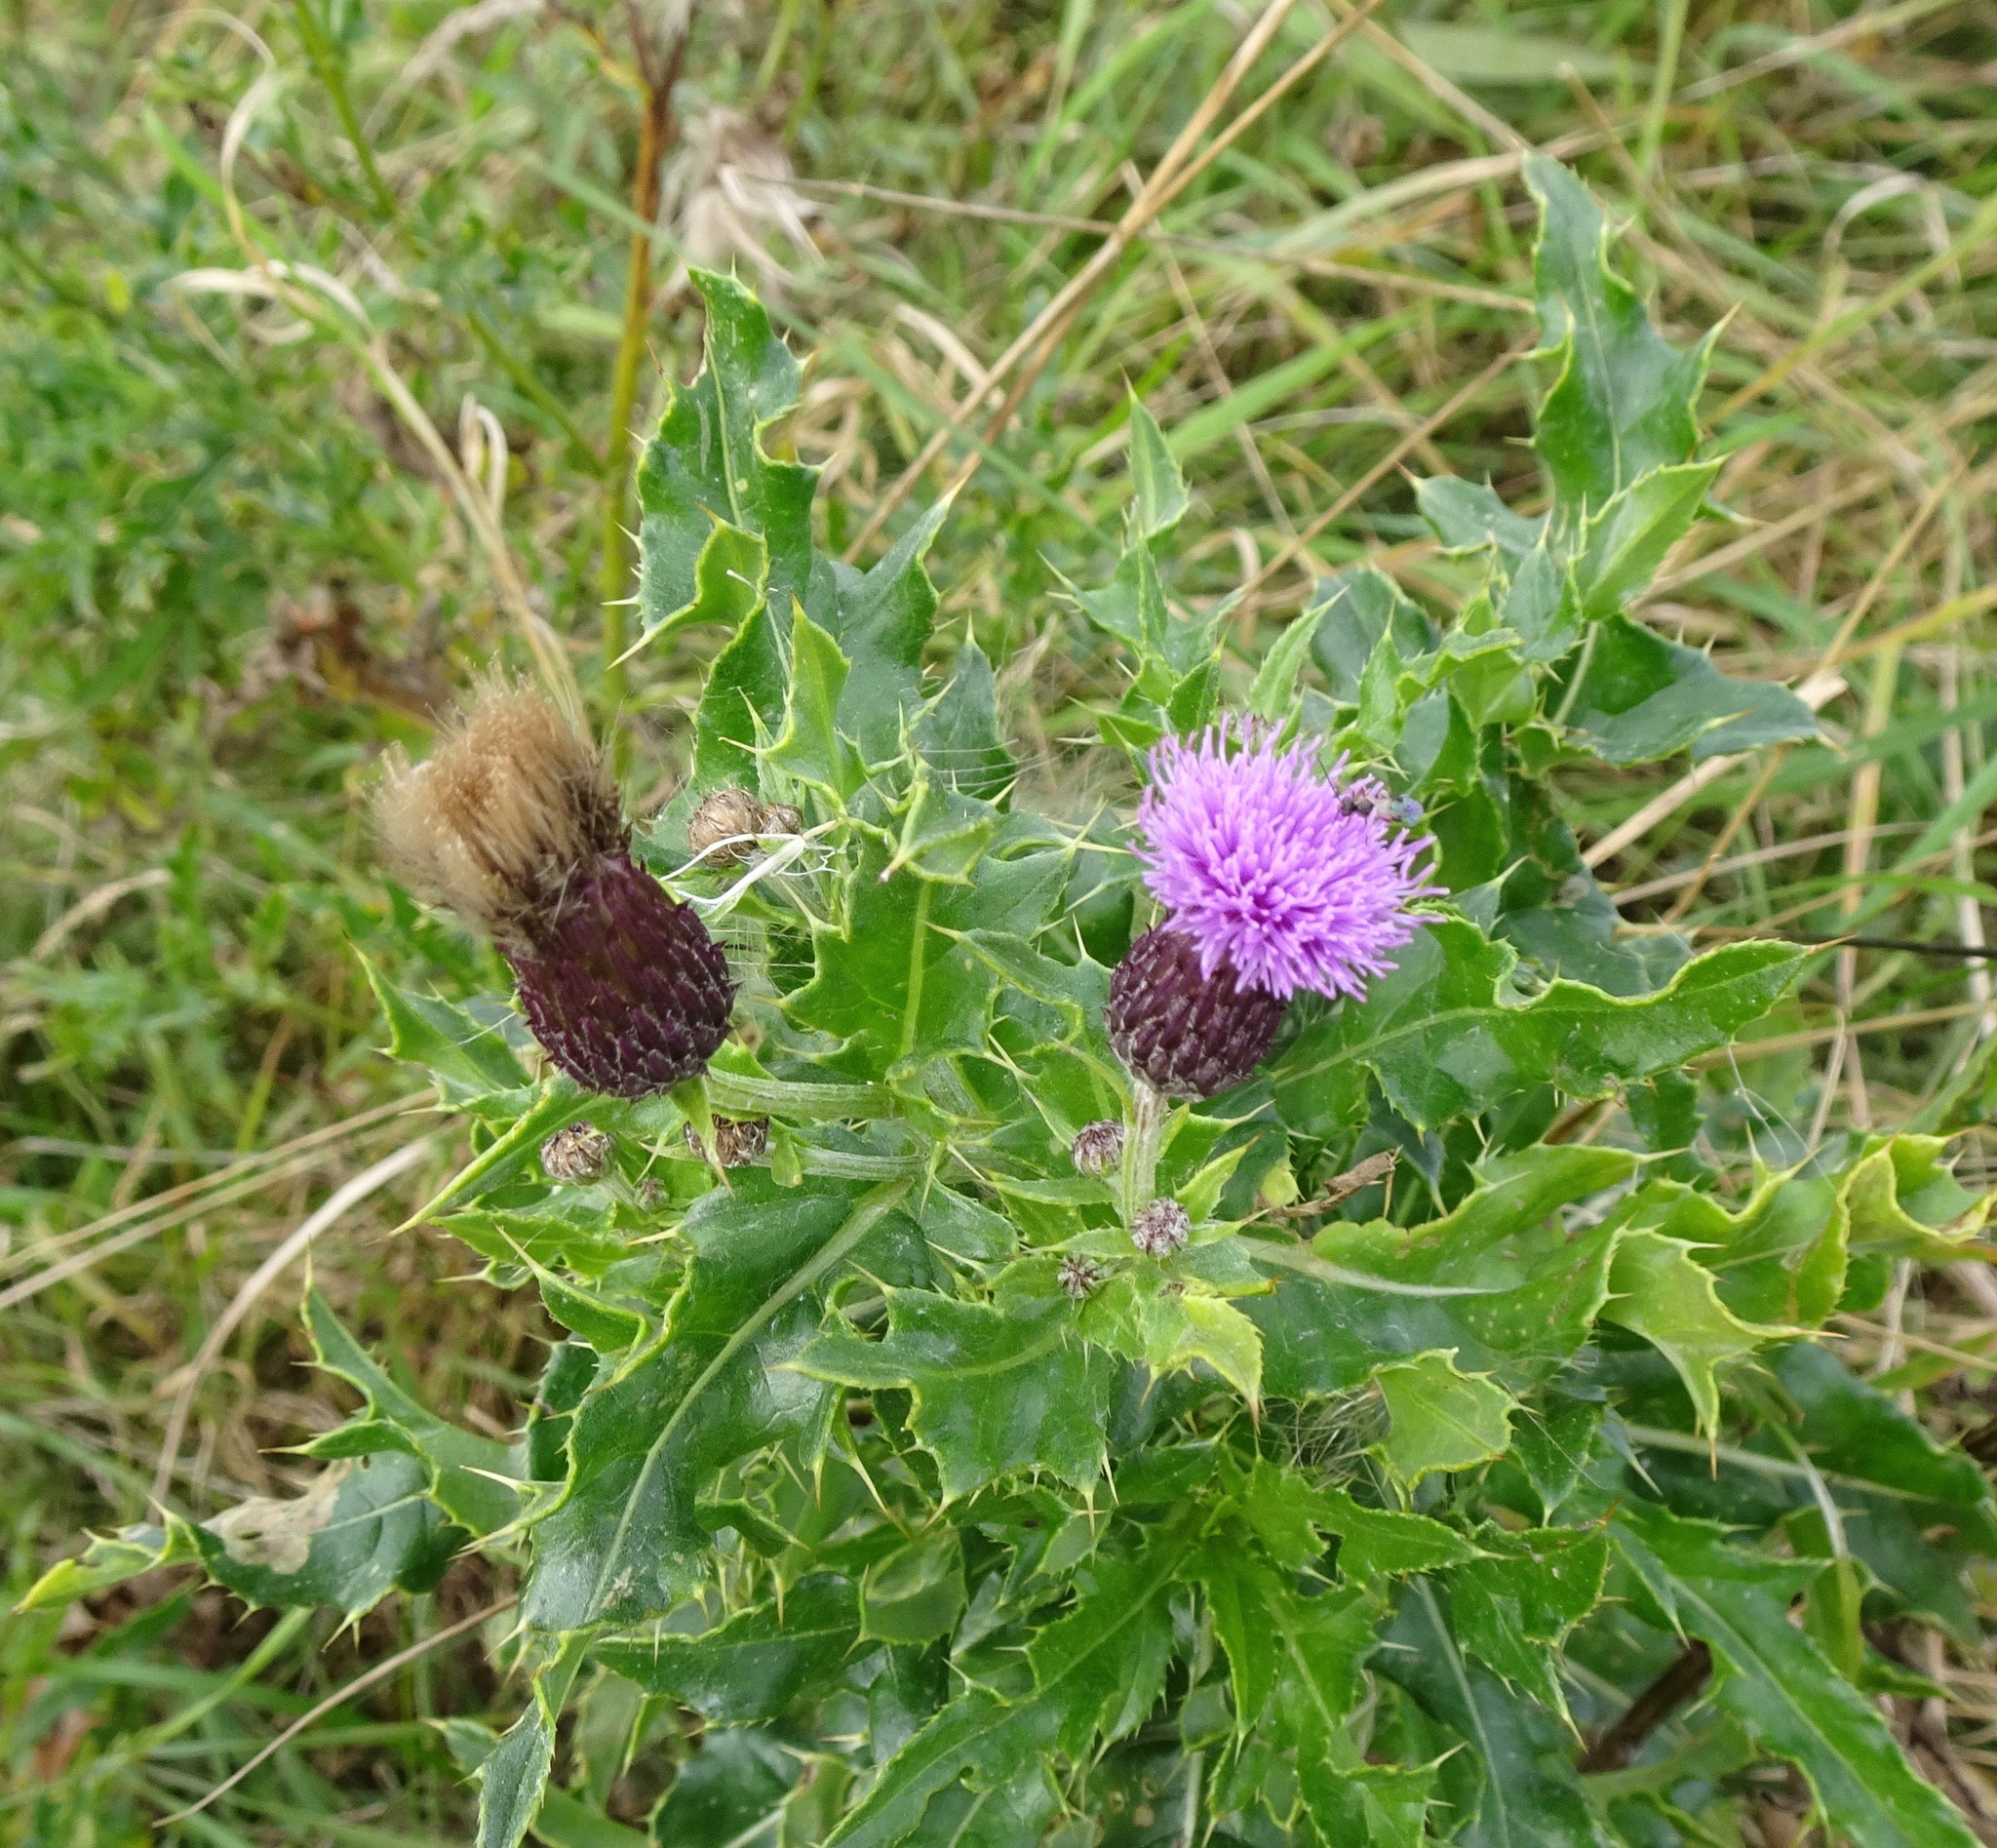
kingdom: Plantae
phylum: Tracheophyta
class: Magnoliopsida
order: Asterales
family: Asteraceae
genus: Cirsium
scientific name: Cirsium arvense
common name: Creeping thistle
